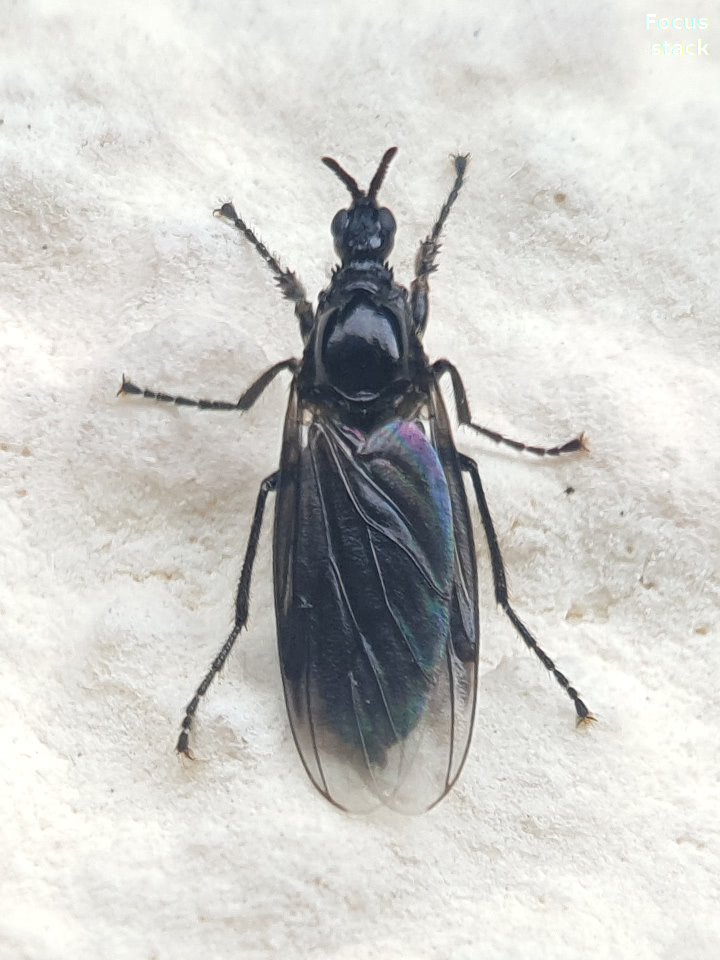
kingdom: Animalia
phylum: Arthropoda
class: Insecta
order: Diptera
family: Bibionidae
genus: Dilophus
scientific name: Dilophus febrilis
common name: Fever fly
